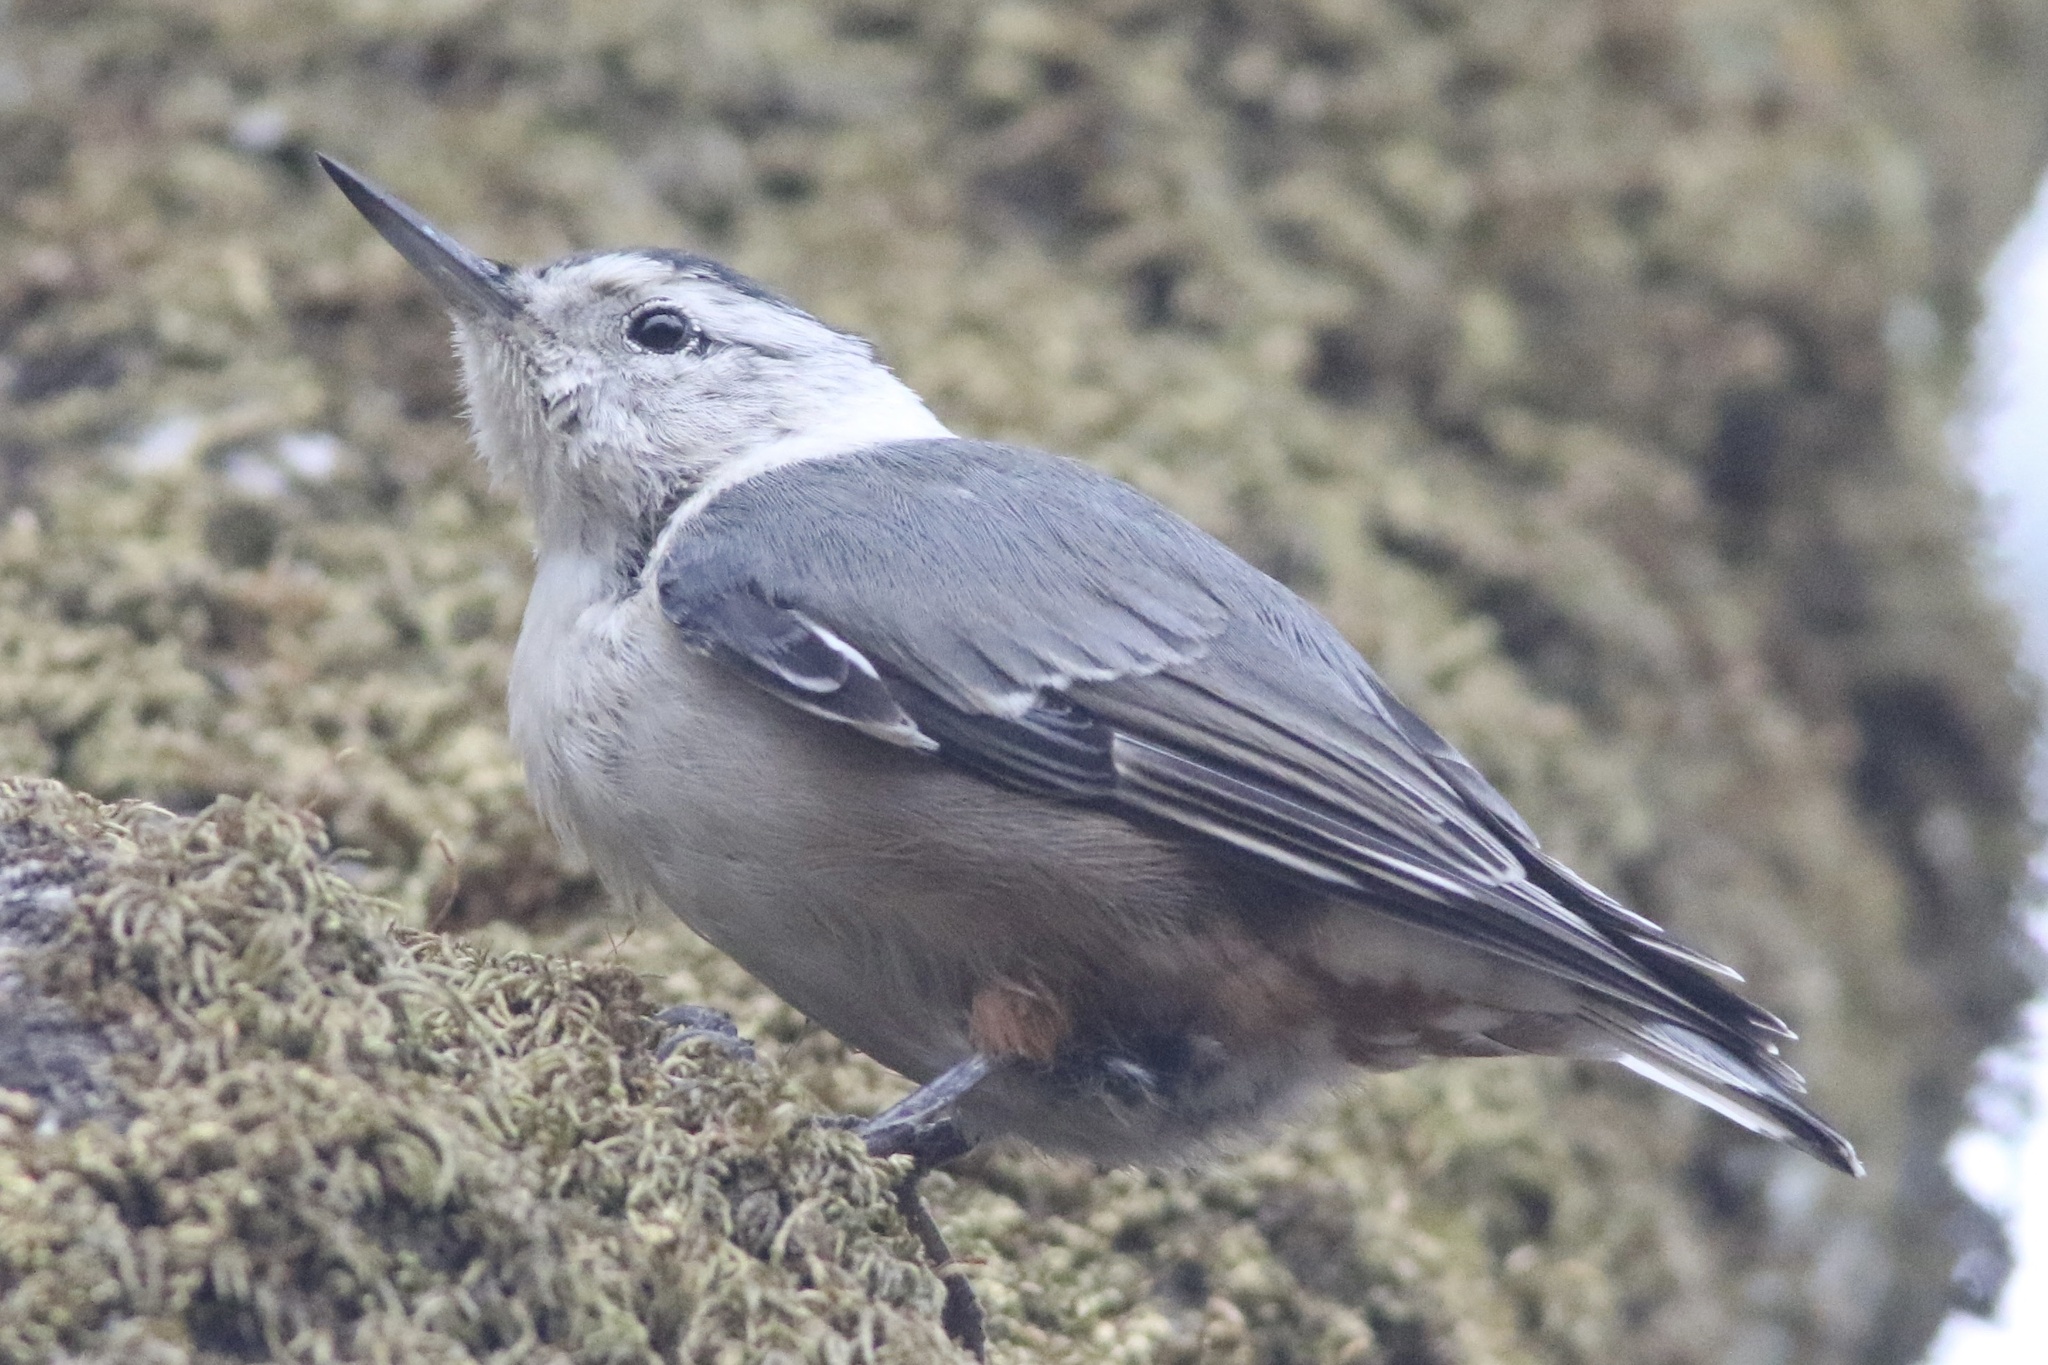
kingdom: Animalia
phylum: Chordata
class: Aves
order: Passeriformes
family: Sittidae
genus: Sitta
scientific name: Sitta carolinensis
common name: White-breasted nuthatch
